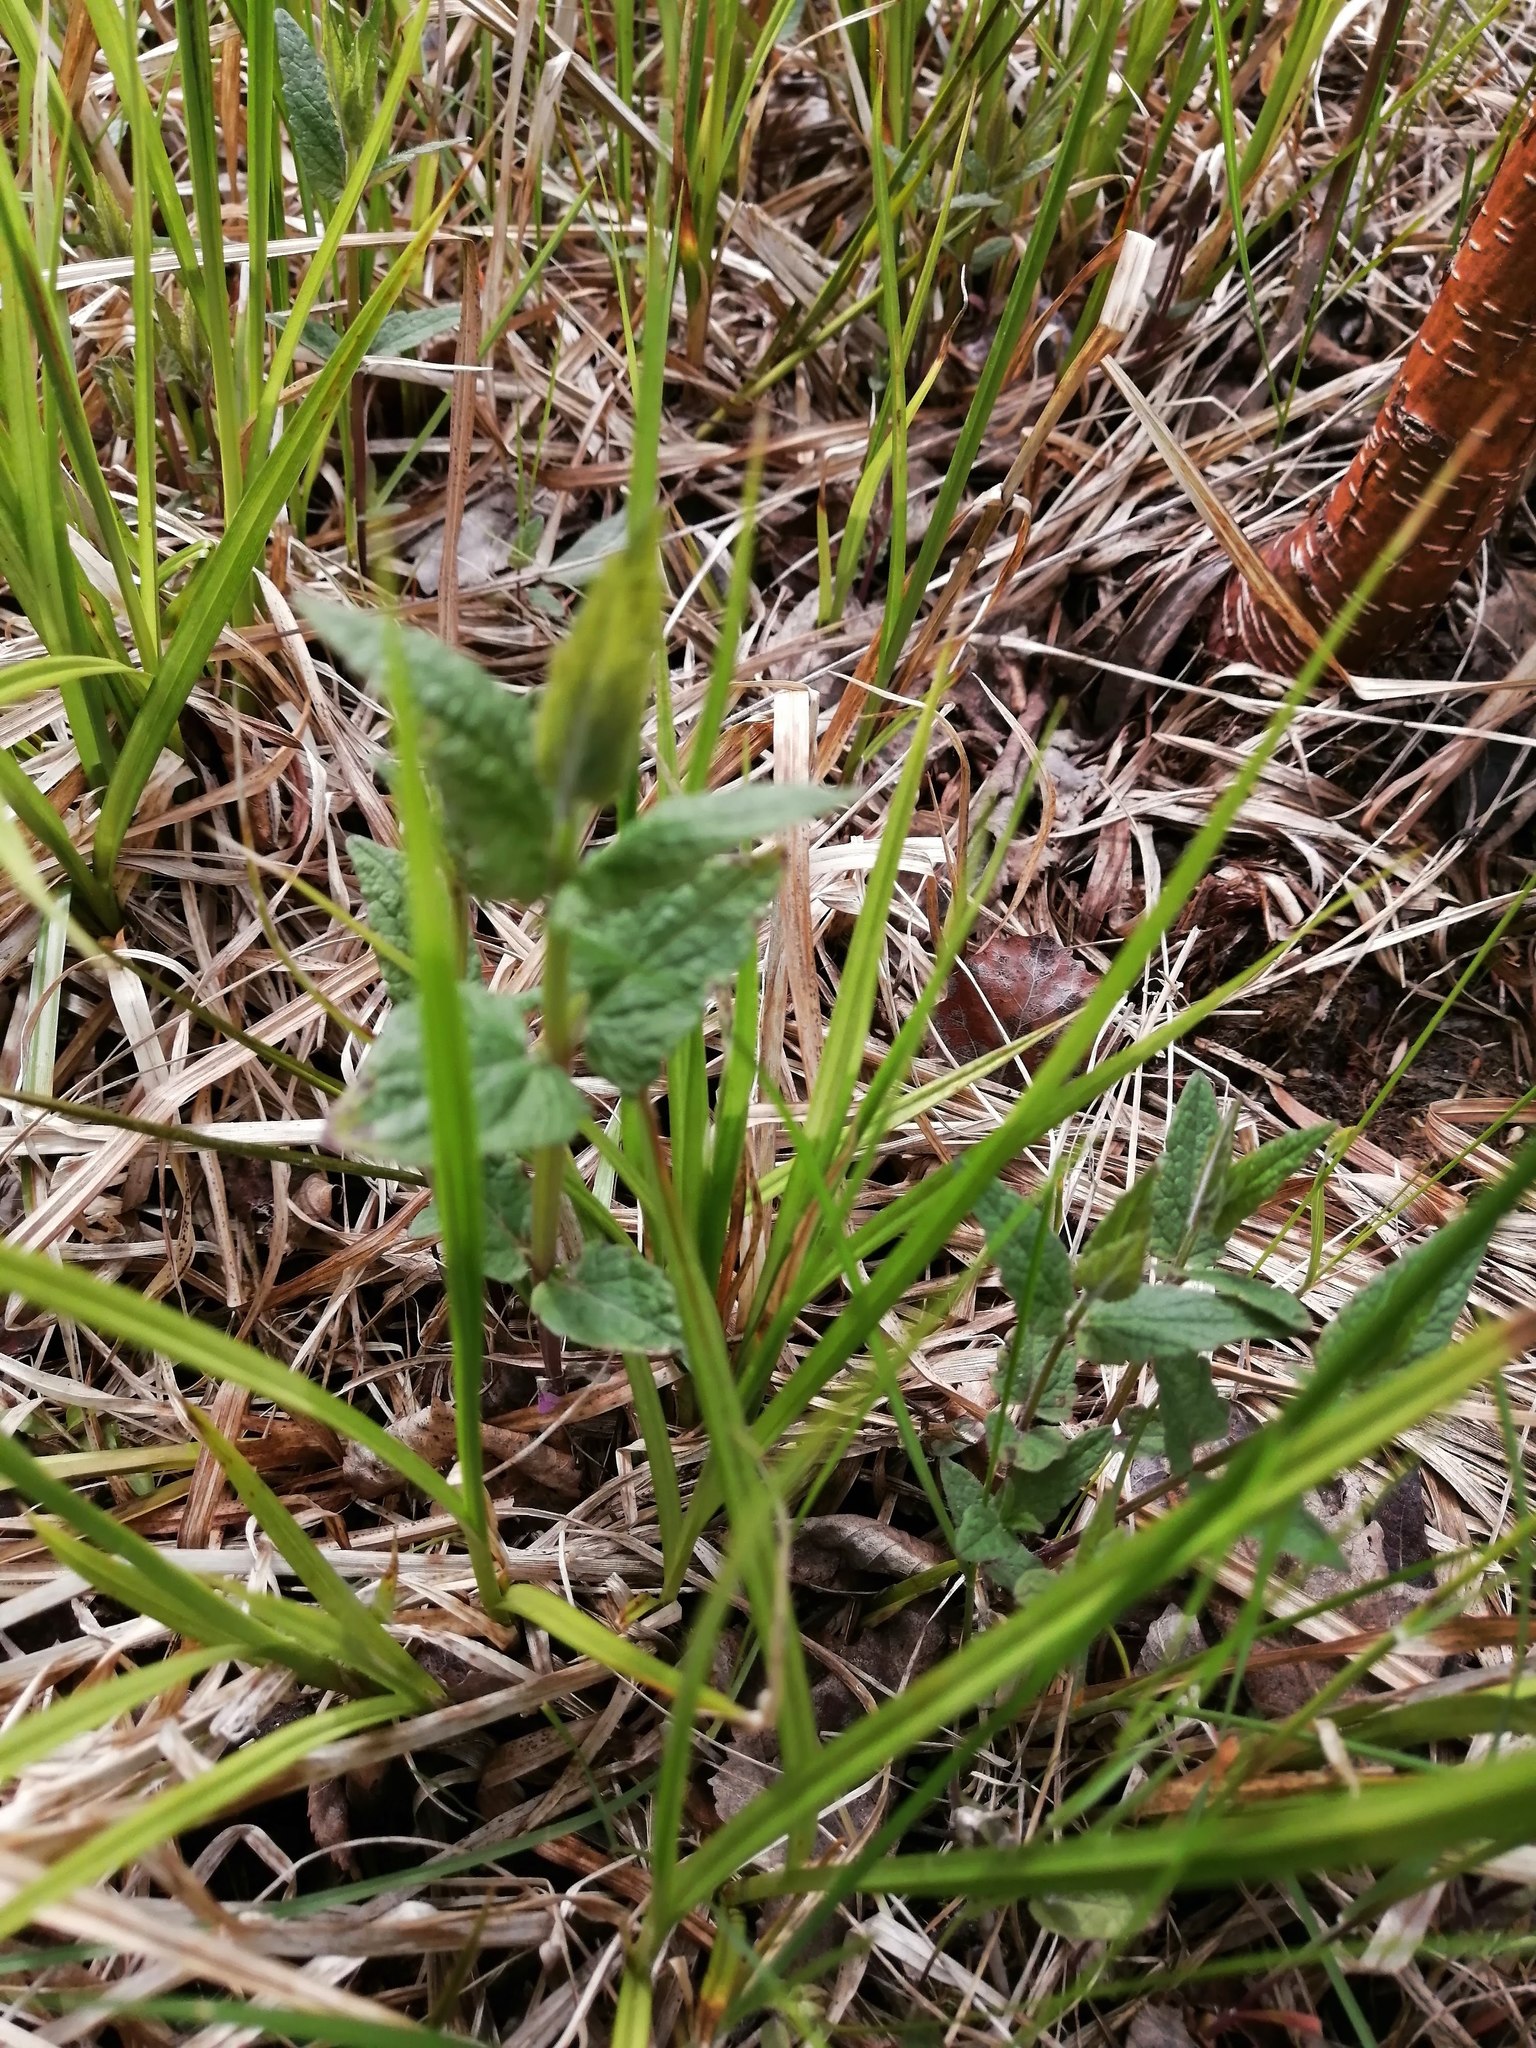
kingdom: Plantae
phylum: Tracheophyta
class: Magnoliopsida
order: Lamiales
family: Lamiaceae
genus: Scutellaria
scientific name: Scutellaria galericulata
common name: Skullcap
